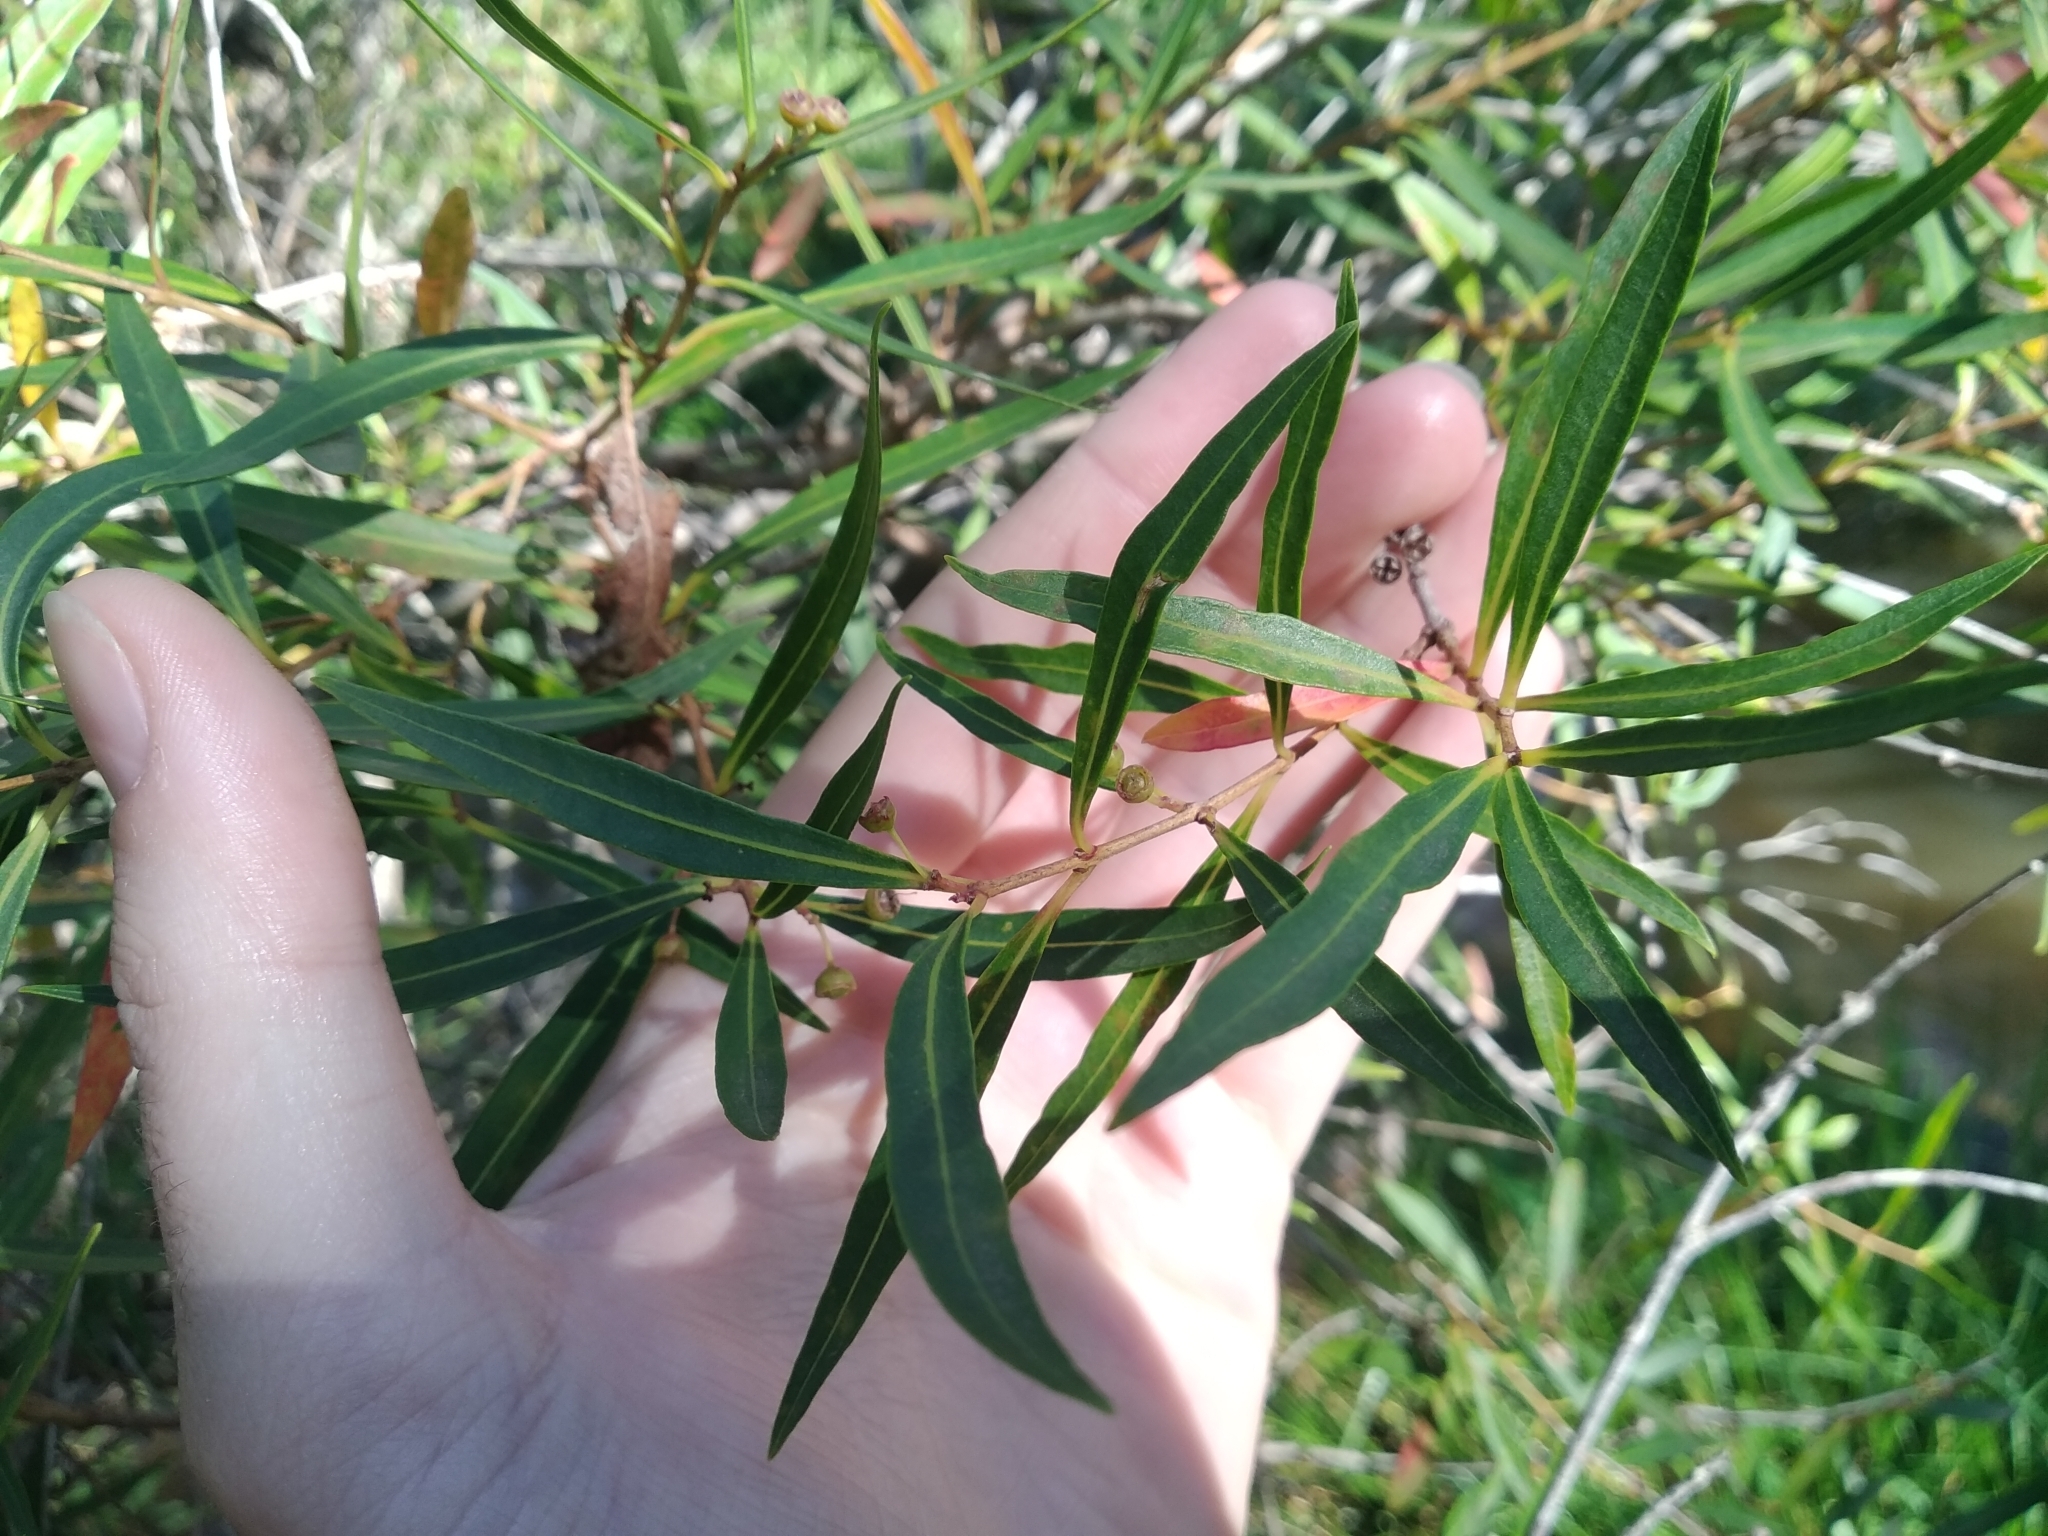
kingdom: Plantae
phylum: Tracheophyta
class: Magnoliopsida
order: Myrtales
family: Myrtaceae
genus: Callistemon
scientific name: Callistemon lanceolatus
